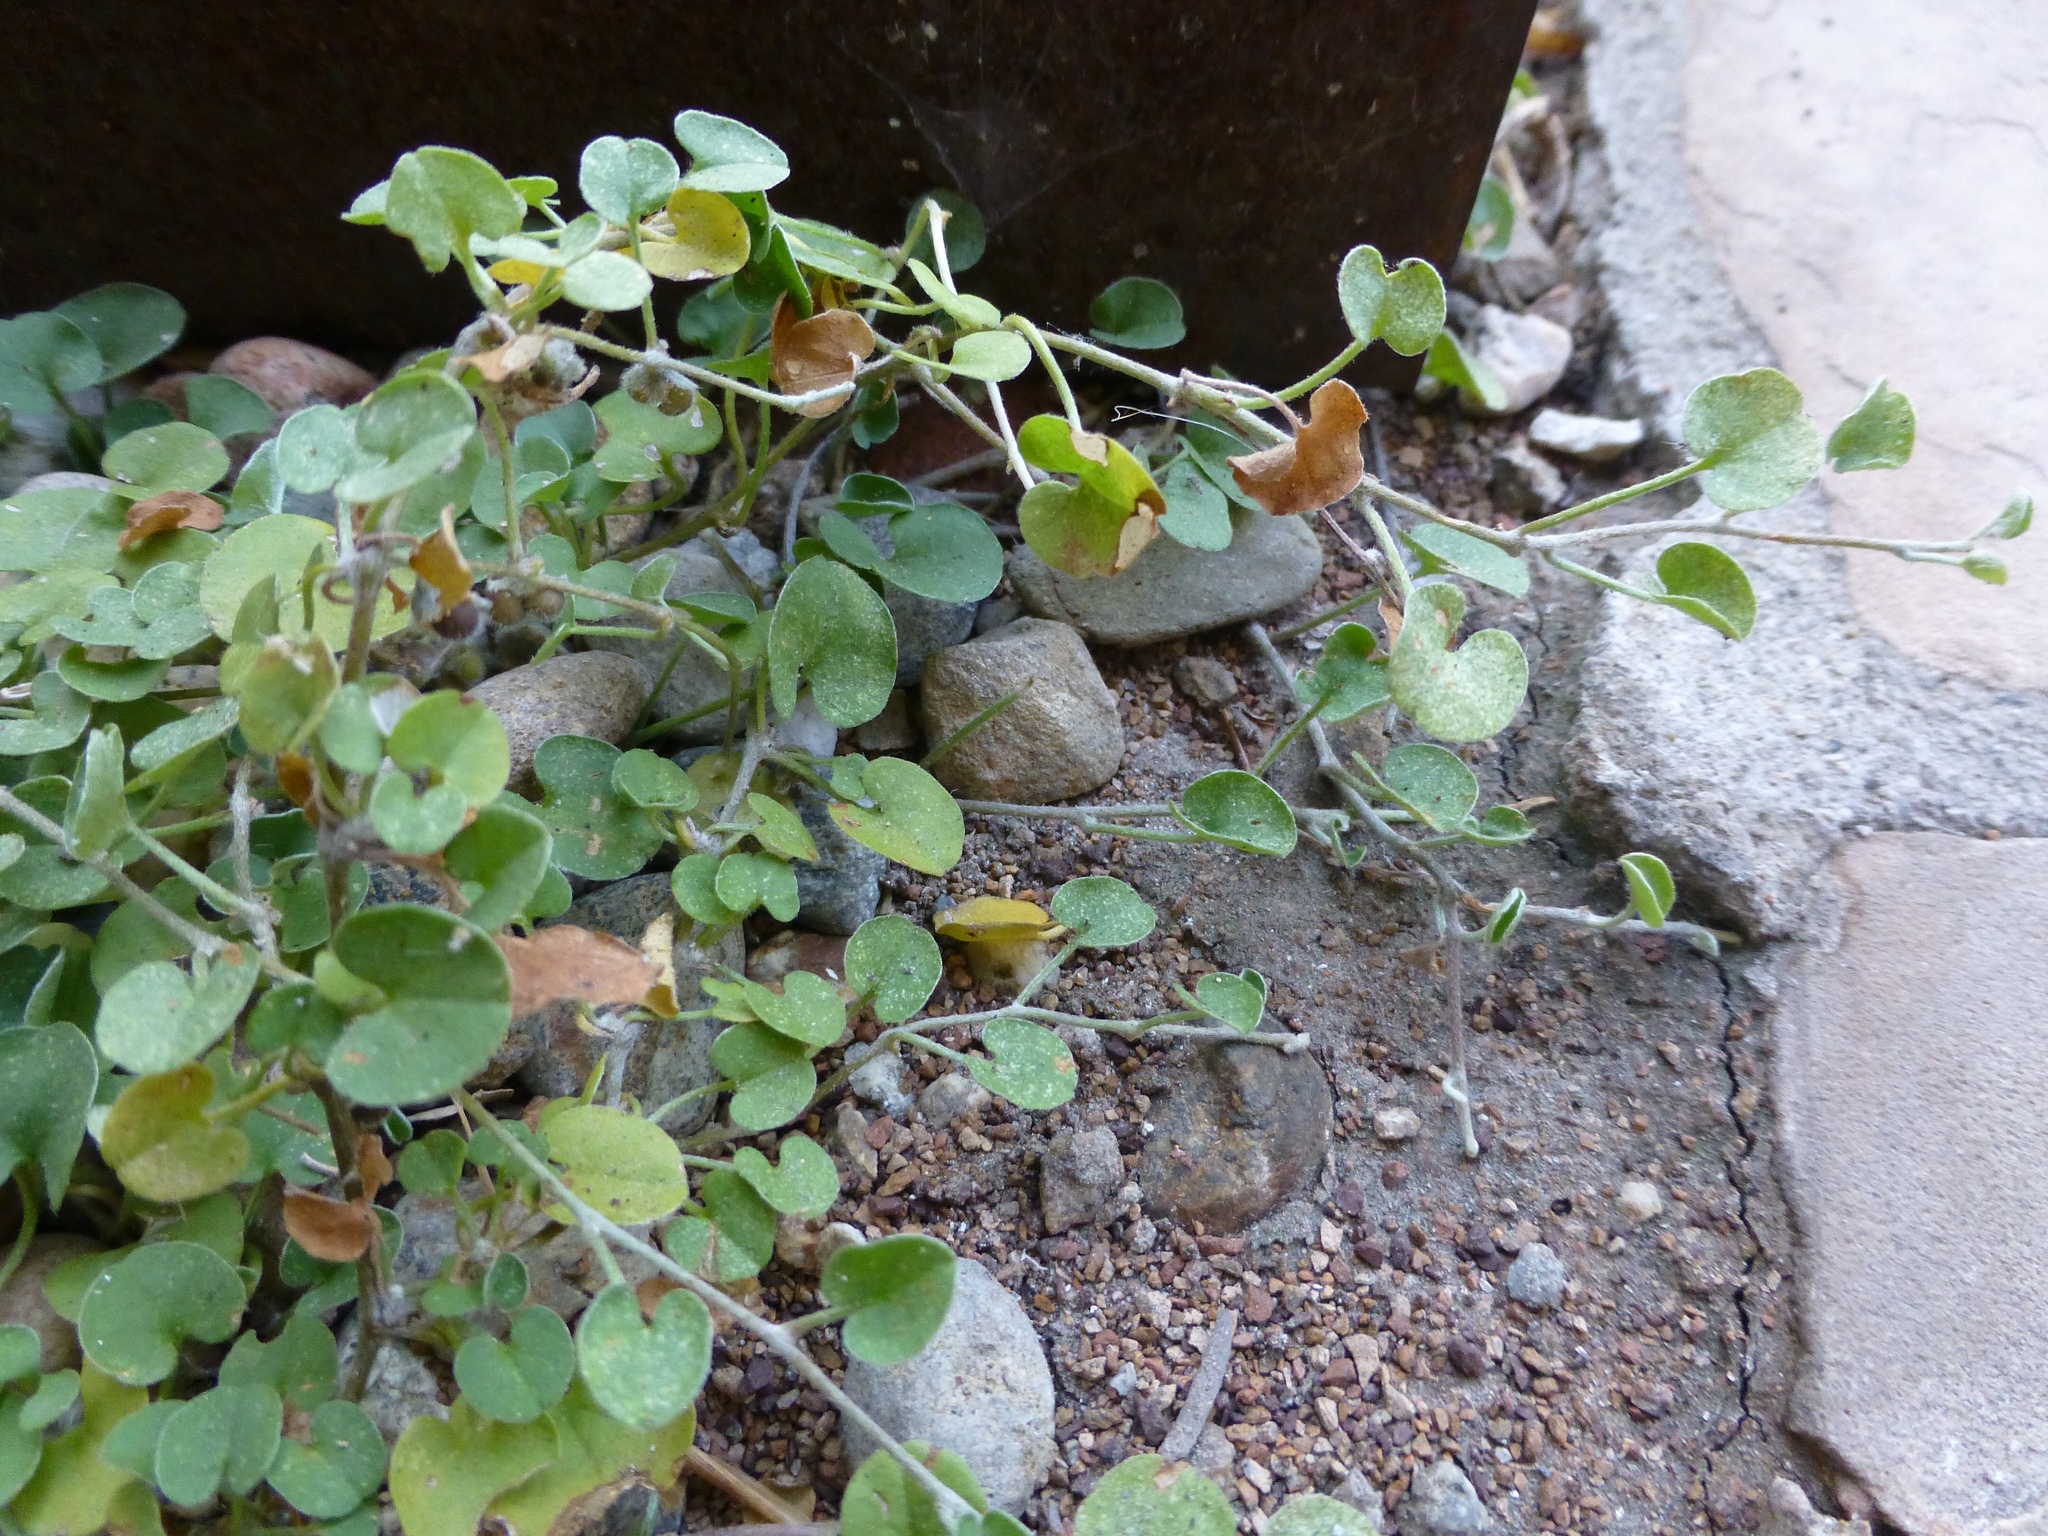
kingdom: Plantae
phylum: Tracheophyta
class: Magnoliopsida
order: Solanales
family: Convolvulaceae
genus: Dichondra
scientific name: Dichondra micrantha
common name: Kidneyweed
